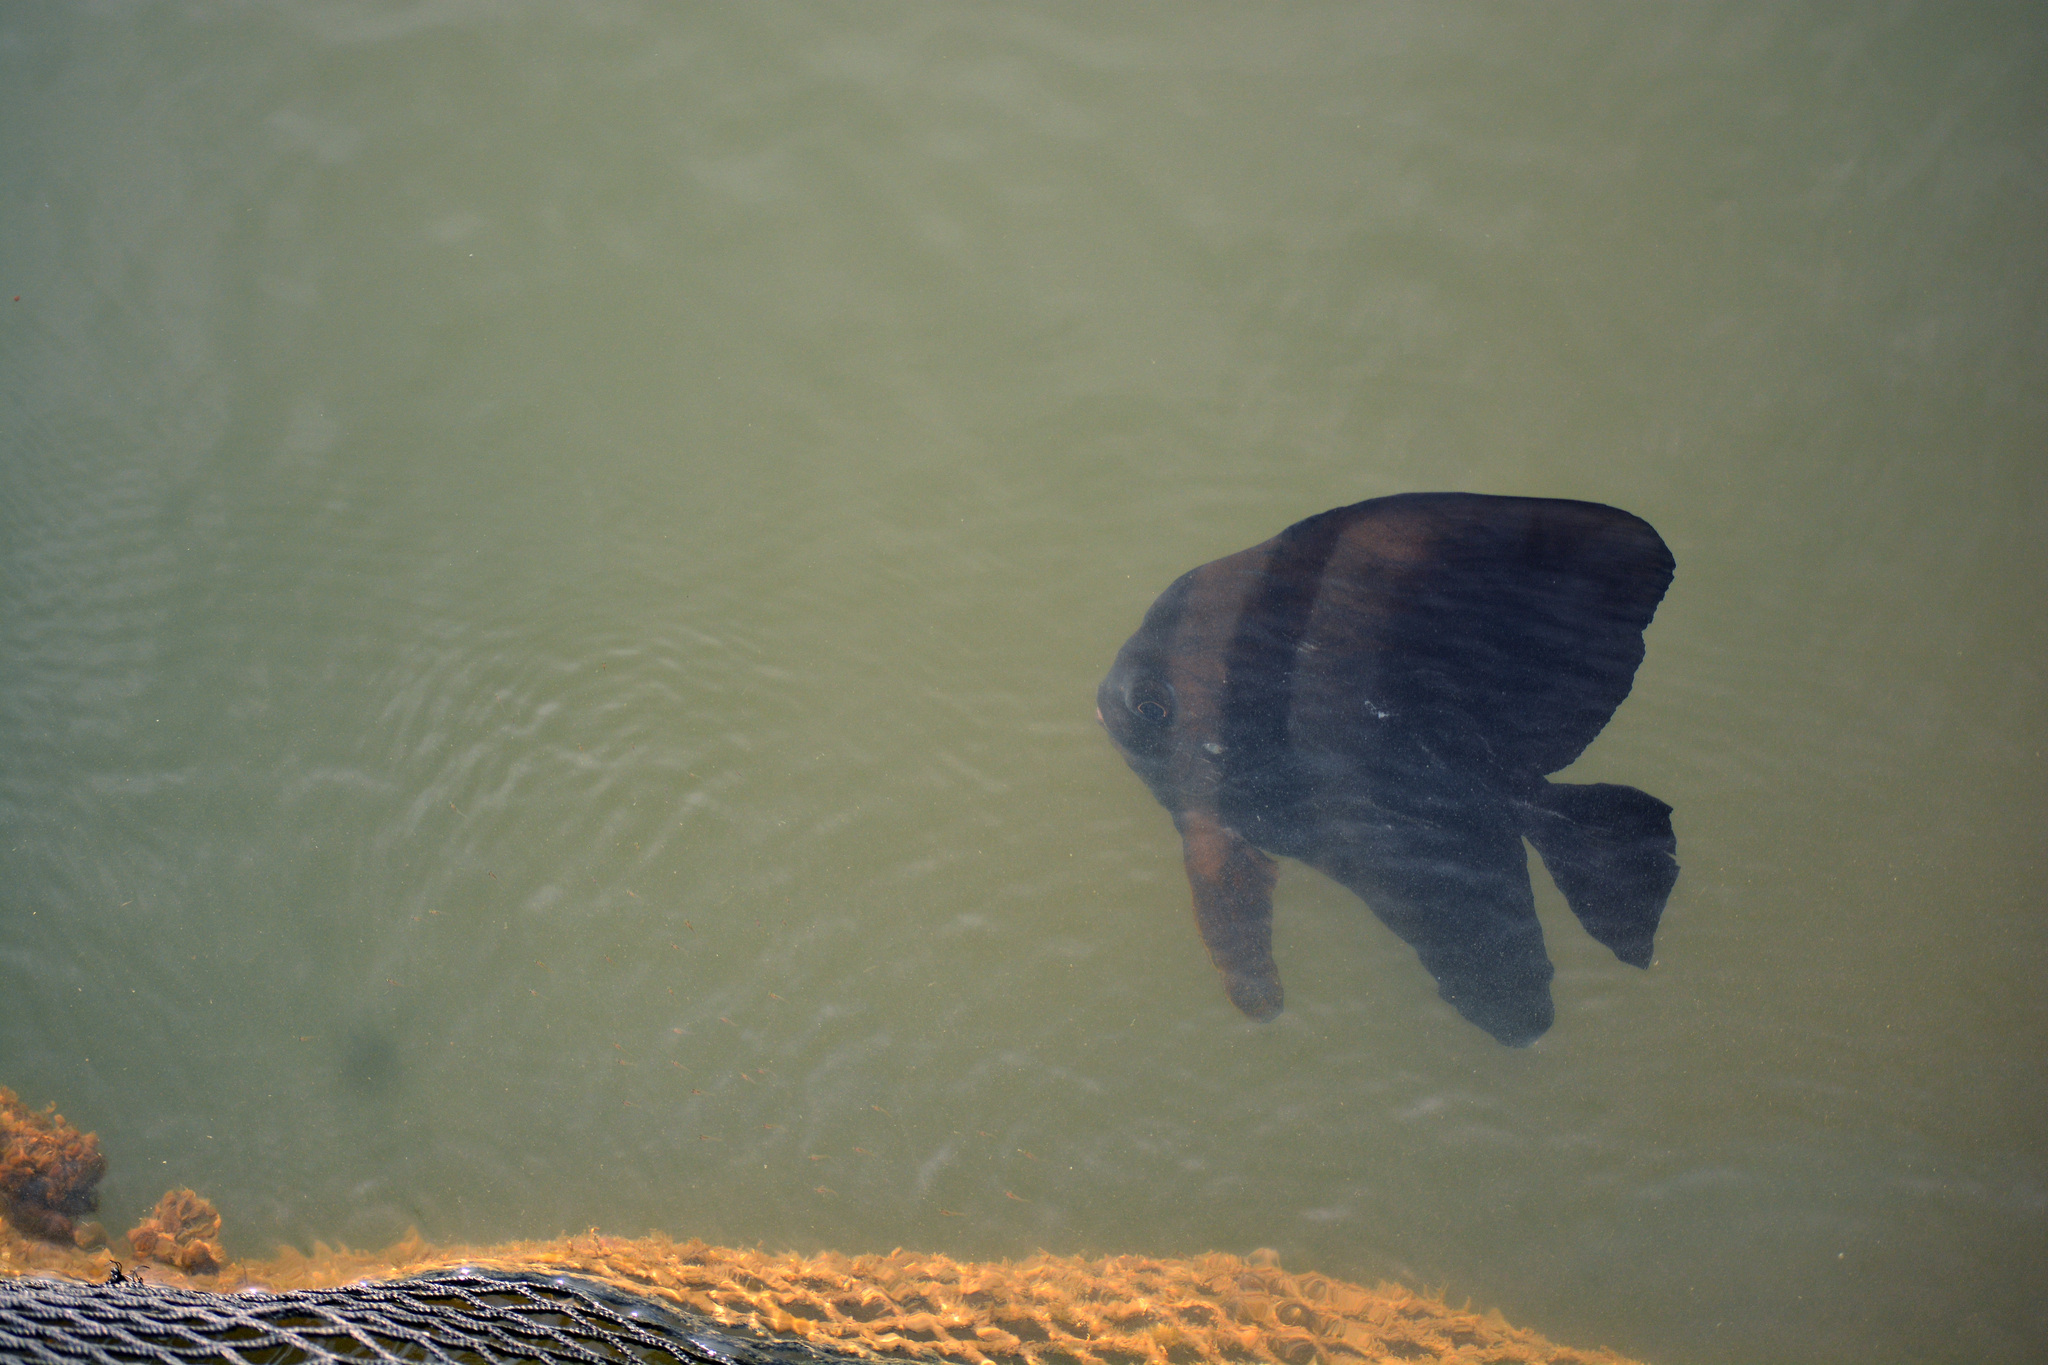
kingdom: Animalia
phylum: Chordata
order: Perciformes
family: Ephippidae
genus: Platax
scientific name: Platax teira
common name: Longfin baitfish
